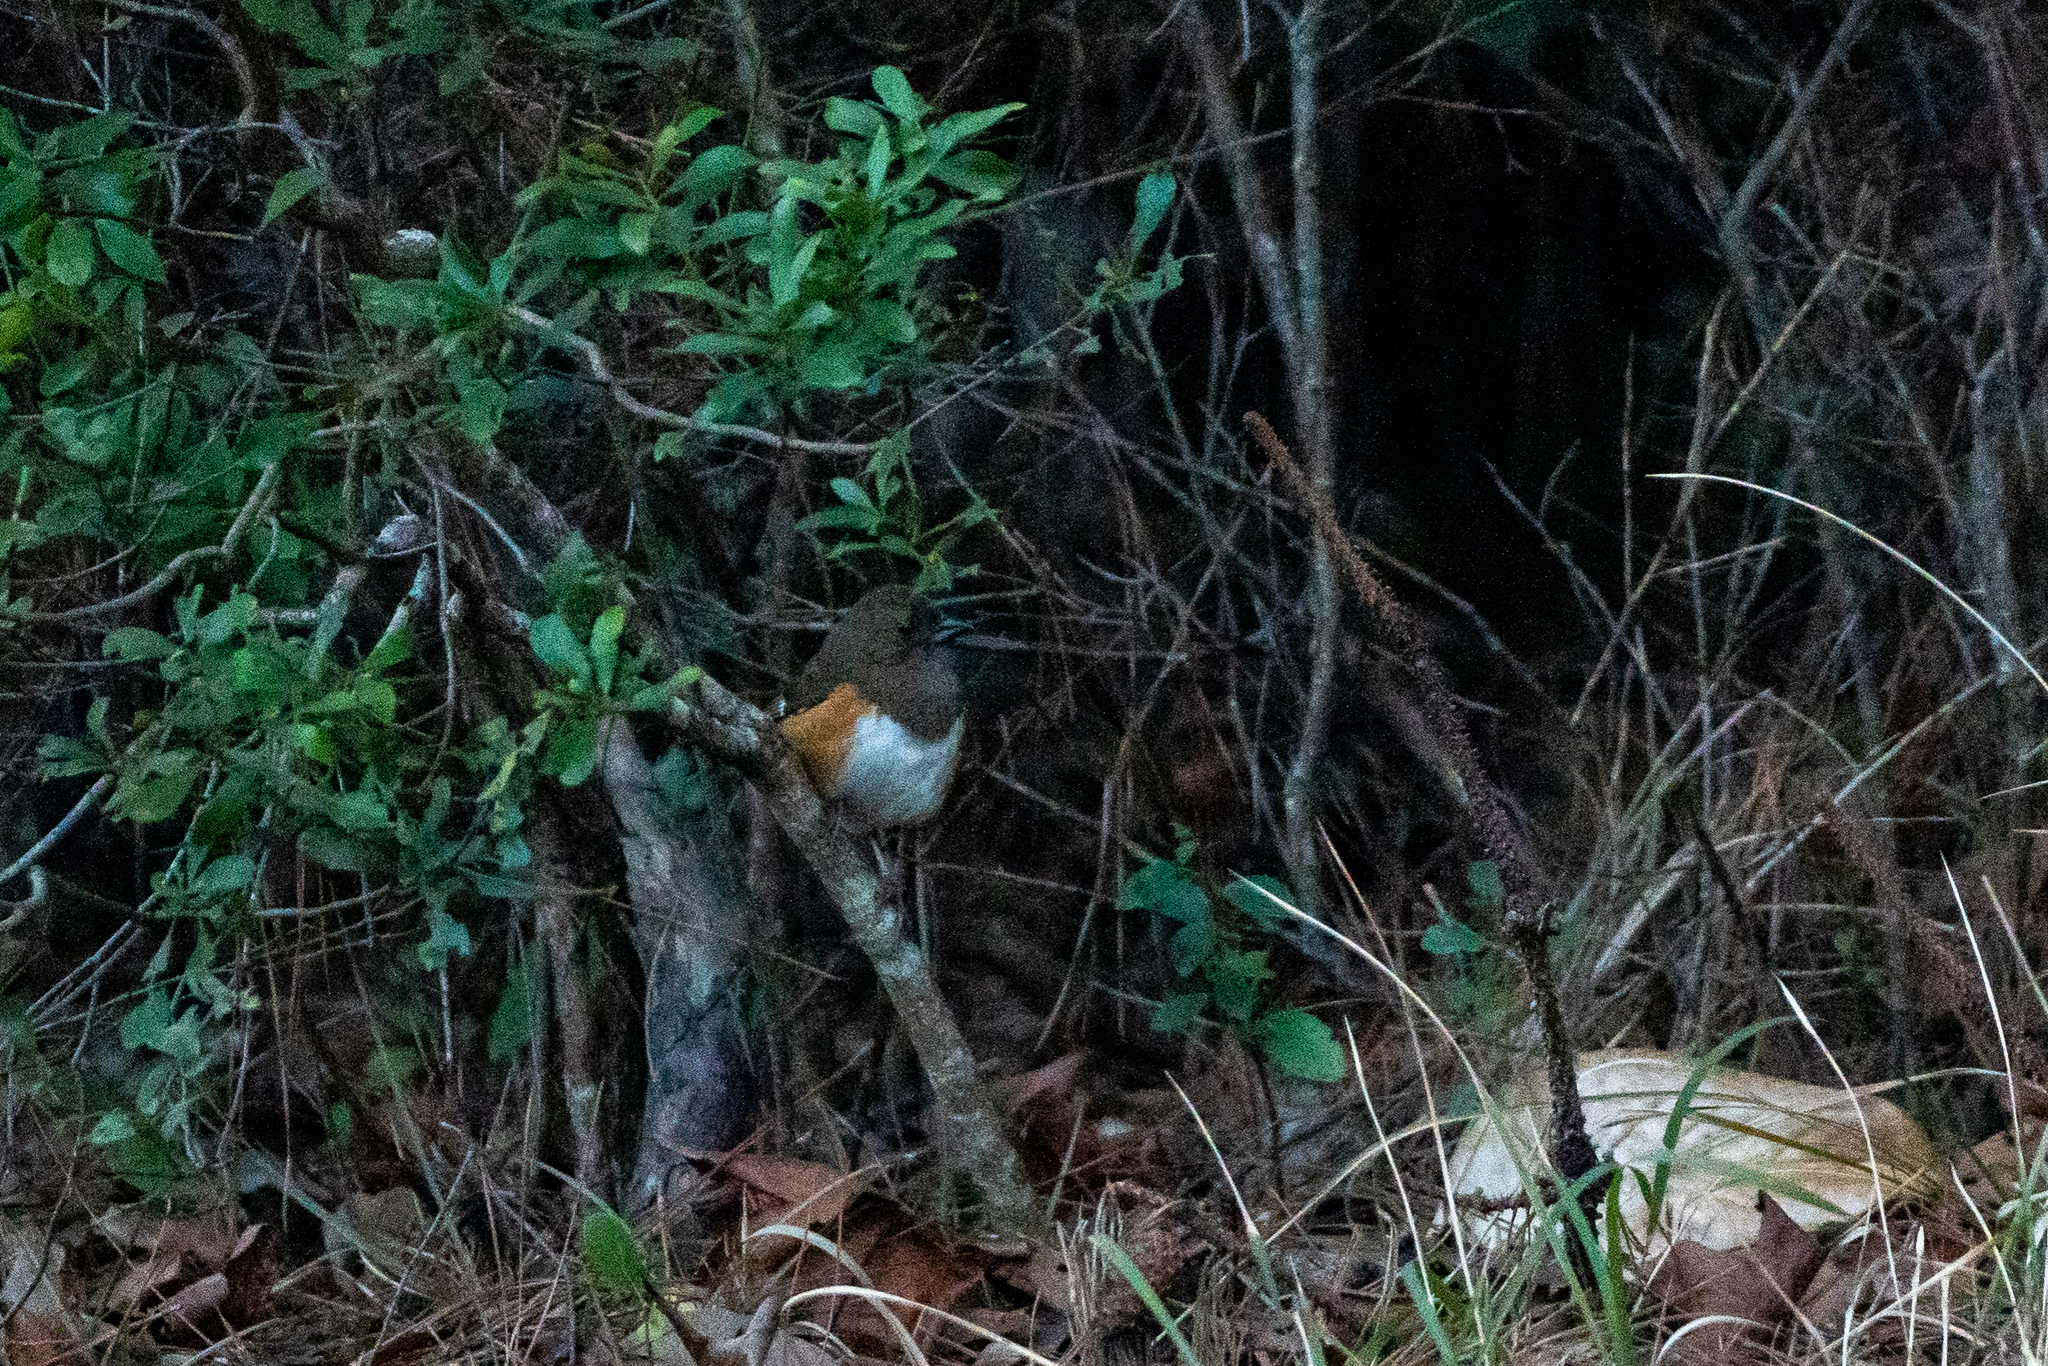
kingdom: Animalia
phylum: Chordata
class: Aves
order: Passeriformes
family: Passerellidae
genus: Pipilo
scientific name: Pipilo erythrophthalmus
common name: Eastern towhee
